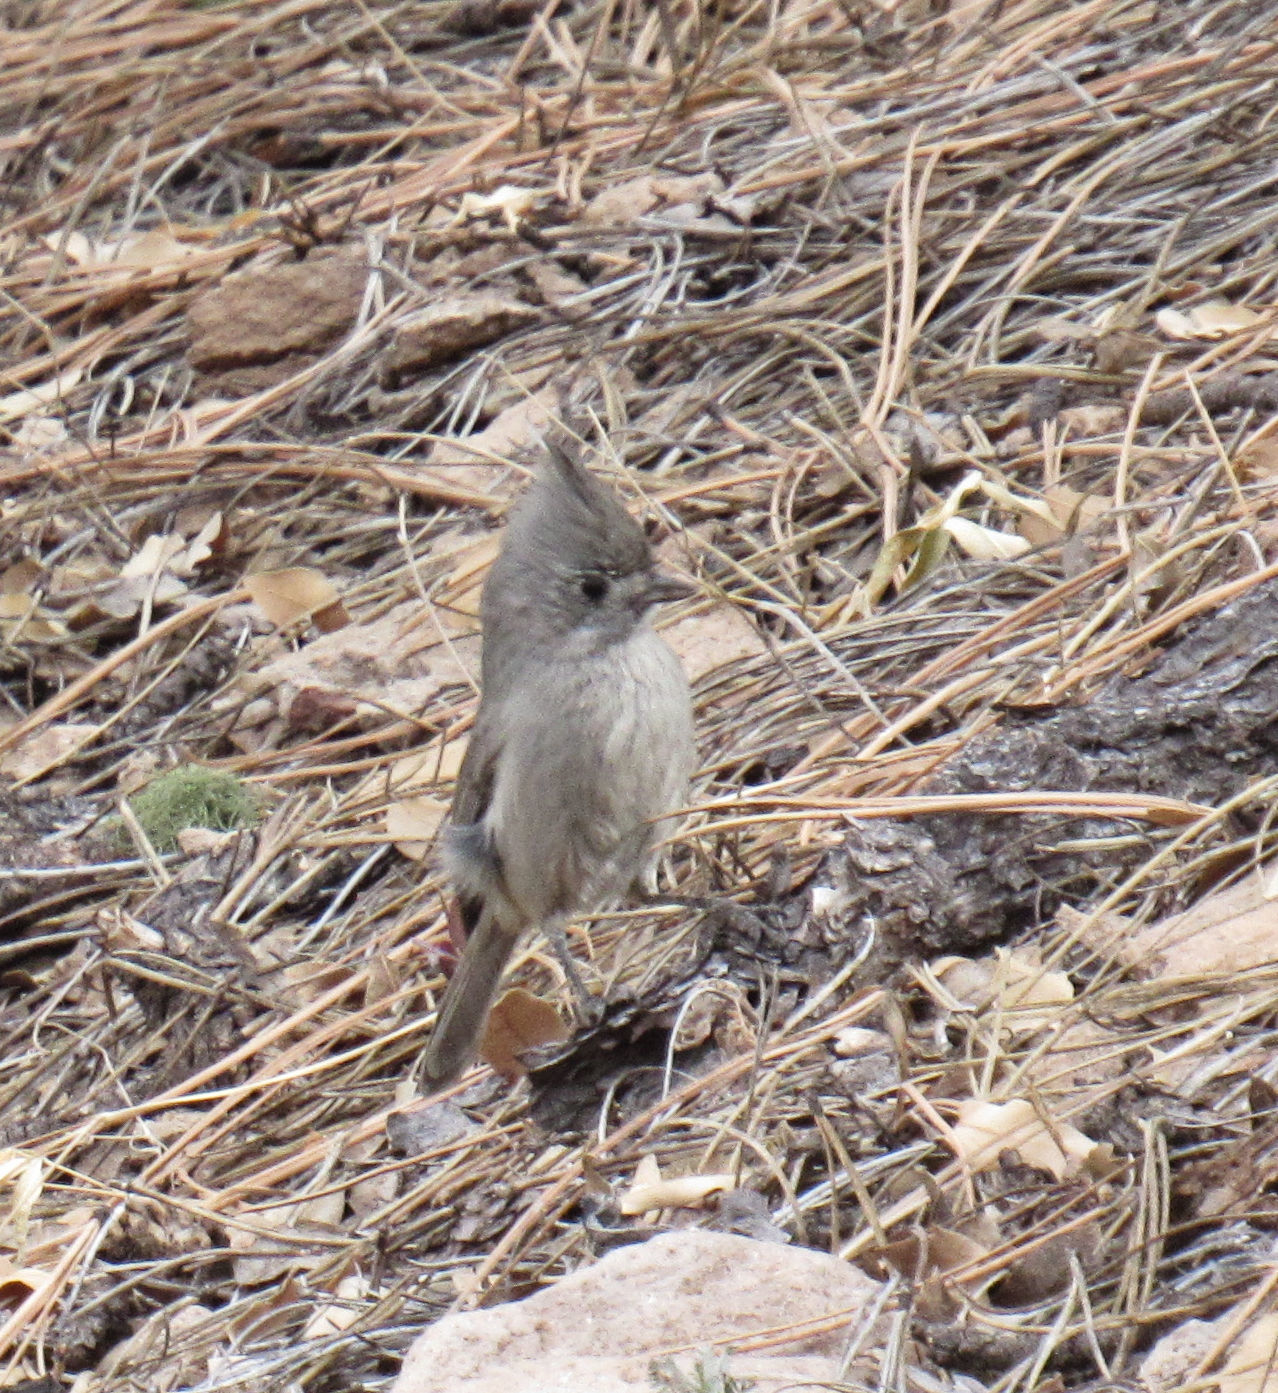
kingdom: Animalia
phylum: Chordata
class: Aves
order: Passeriformes
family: Paridae
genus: Baeolophus
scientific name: Baeolophus ridgwayi
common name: Juniper titmouse
